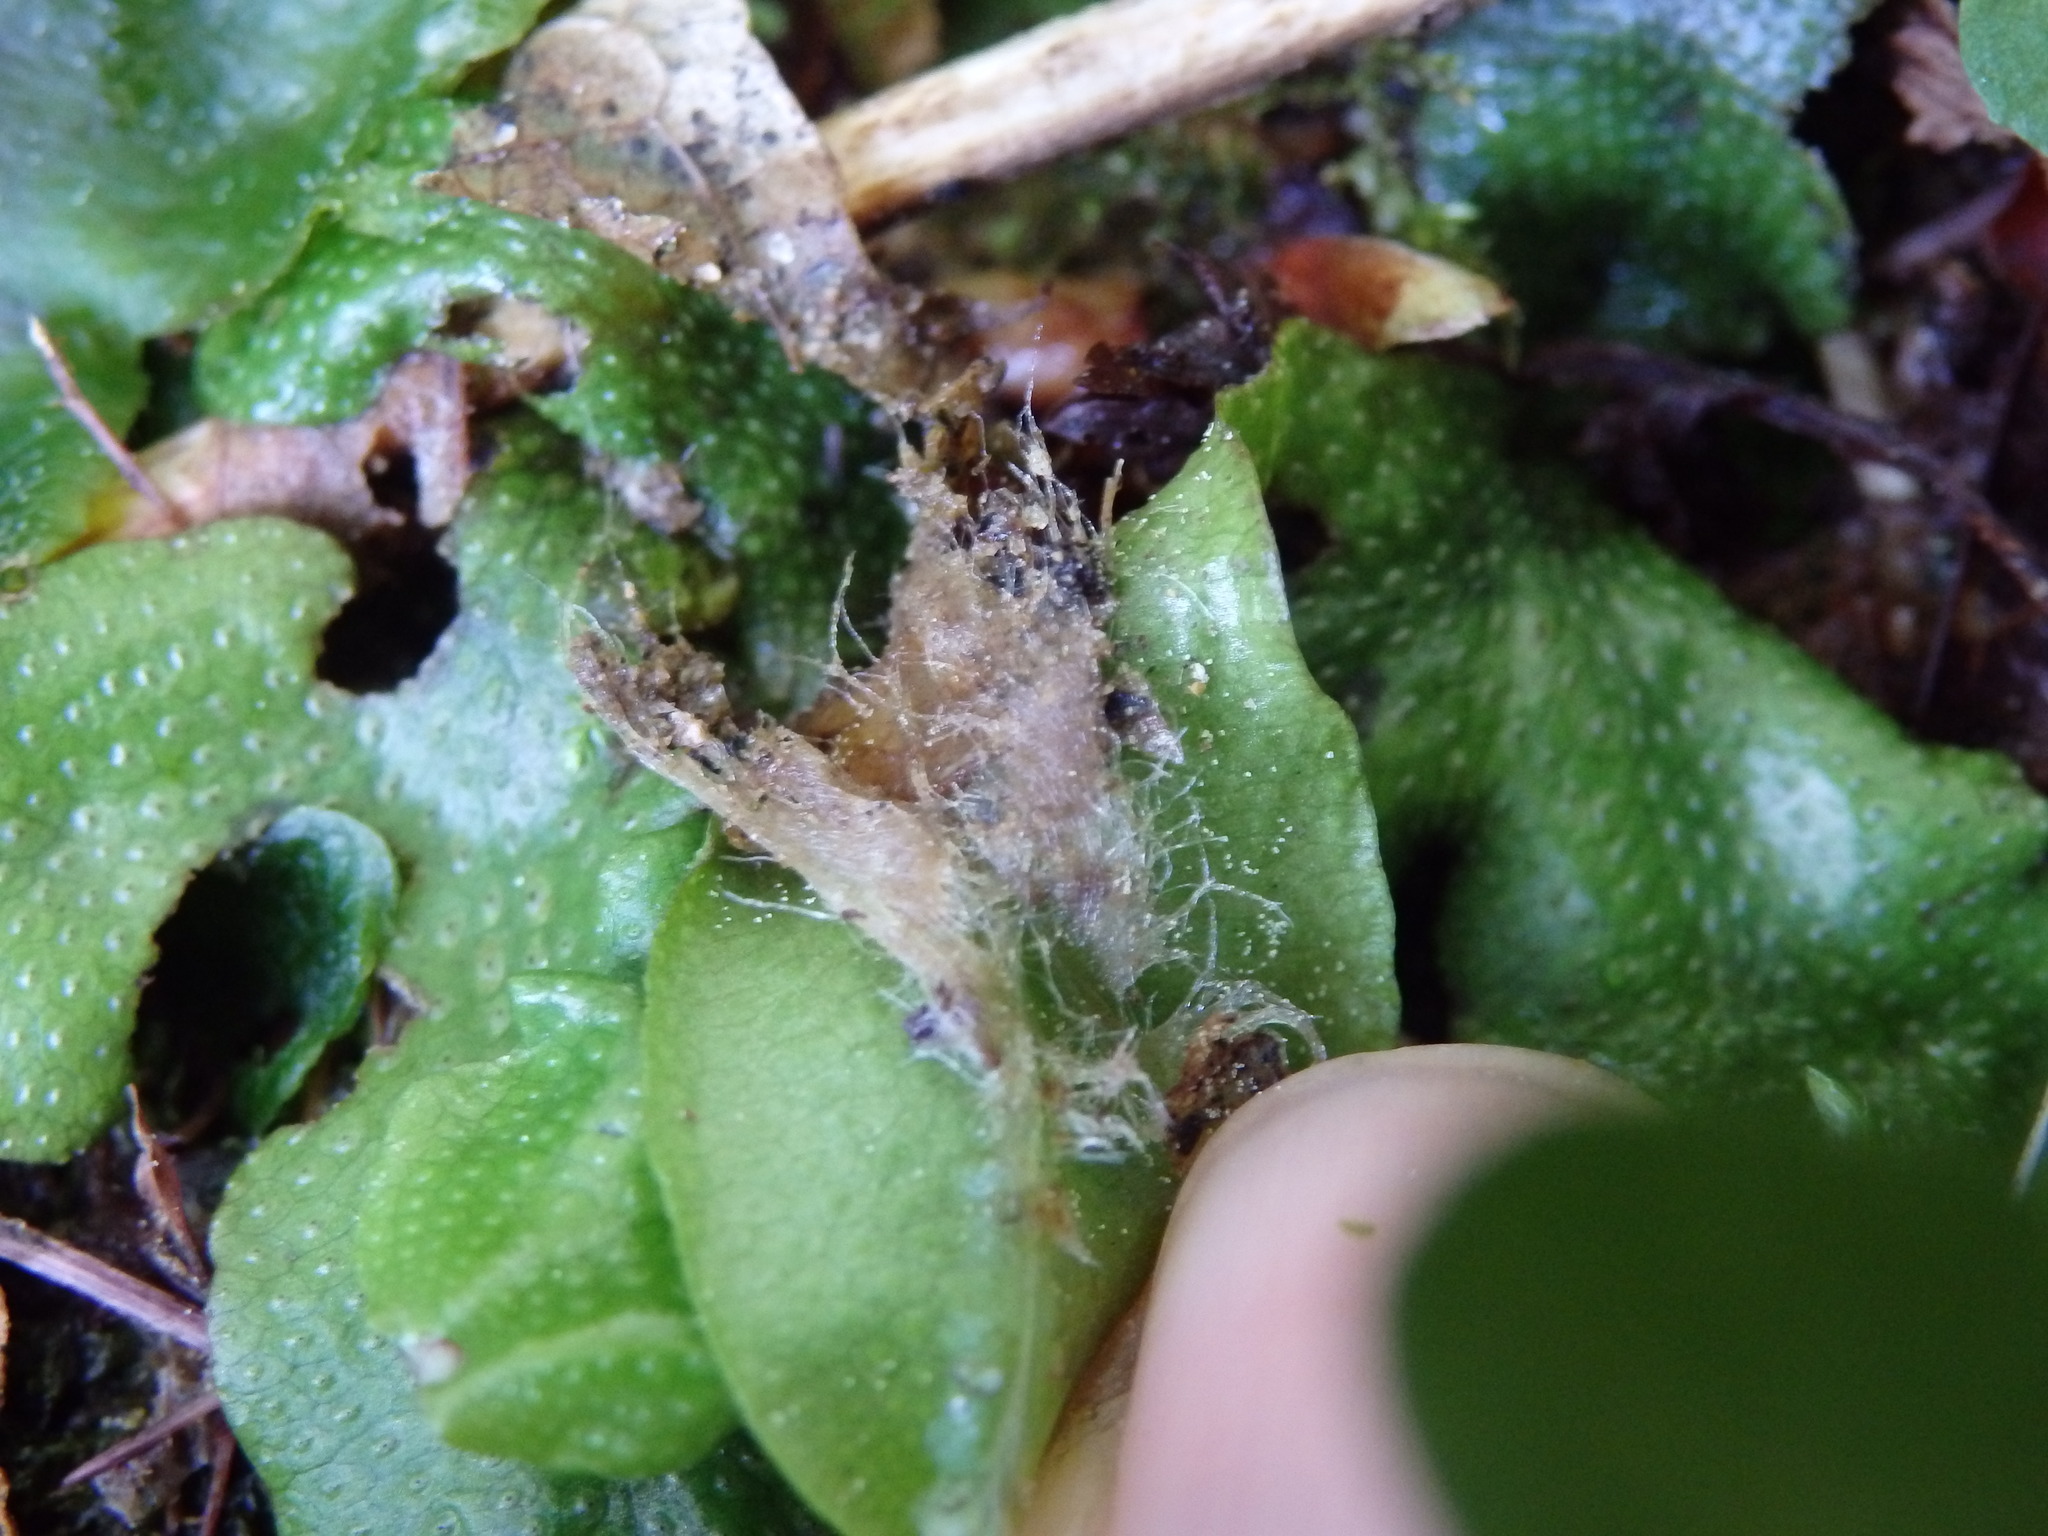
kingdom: Plantae
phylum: Marchantiophyta
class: Marchantiopsida
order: Marchantiales
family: Conocephalaceae
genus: Conocephalum
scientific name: Conocephalum conicum
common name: Great scented liverwort
